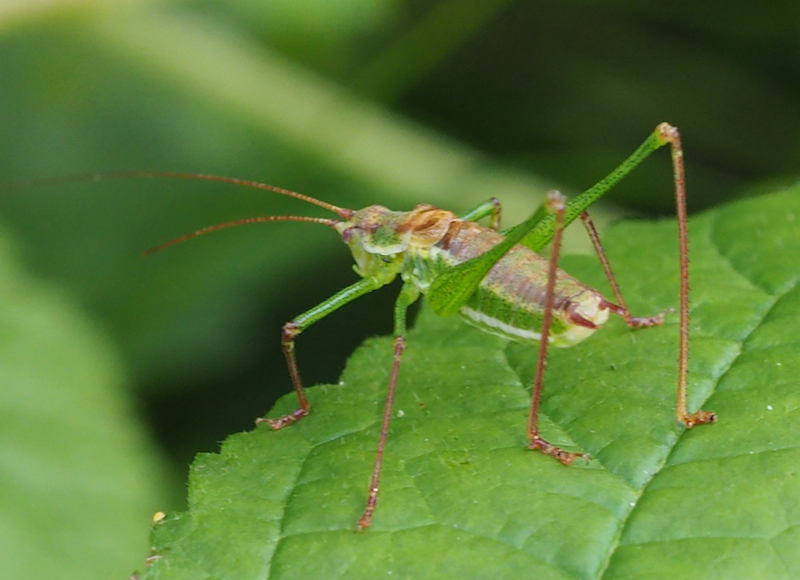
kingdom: Animalia
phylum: Arthropoda
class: Insecta
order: Orthoptera
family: Tettigoniidae
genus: Leptophyes
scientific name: Leptophyes albovittata
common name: Striped bush-cricket
